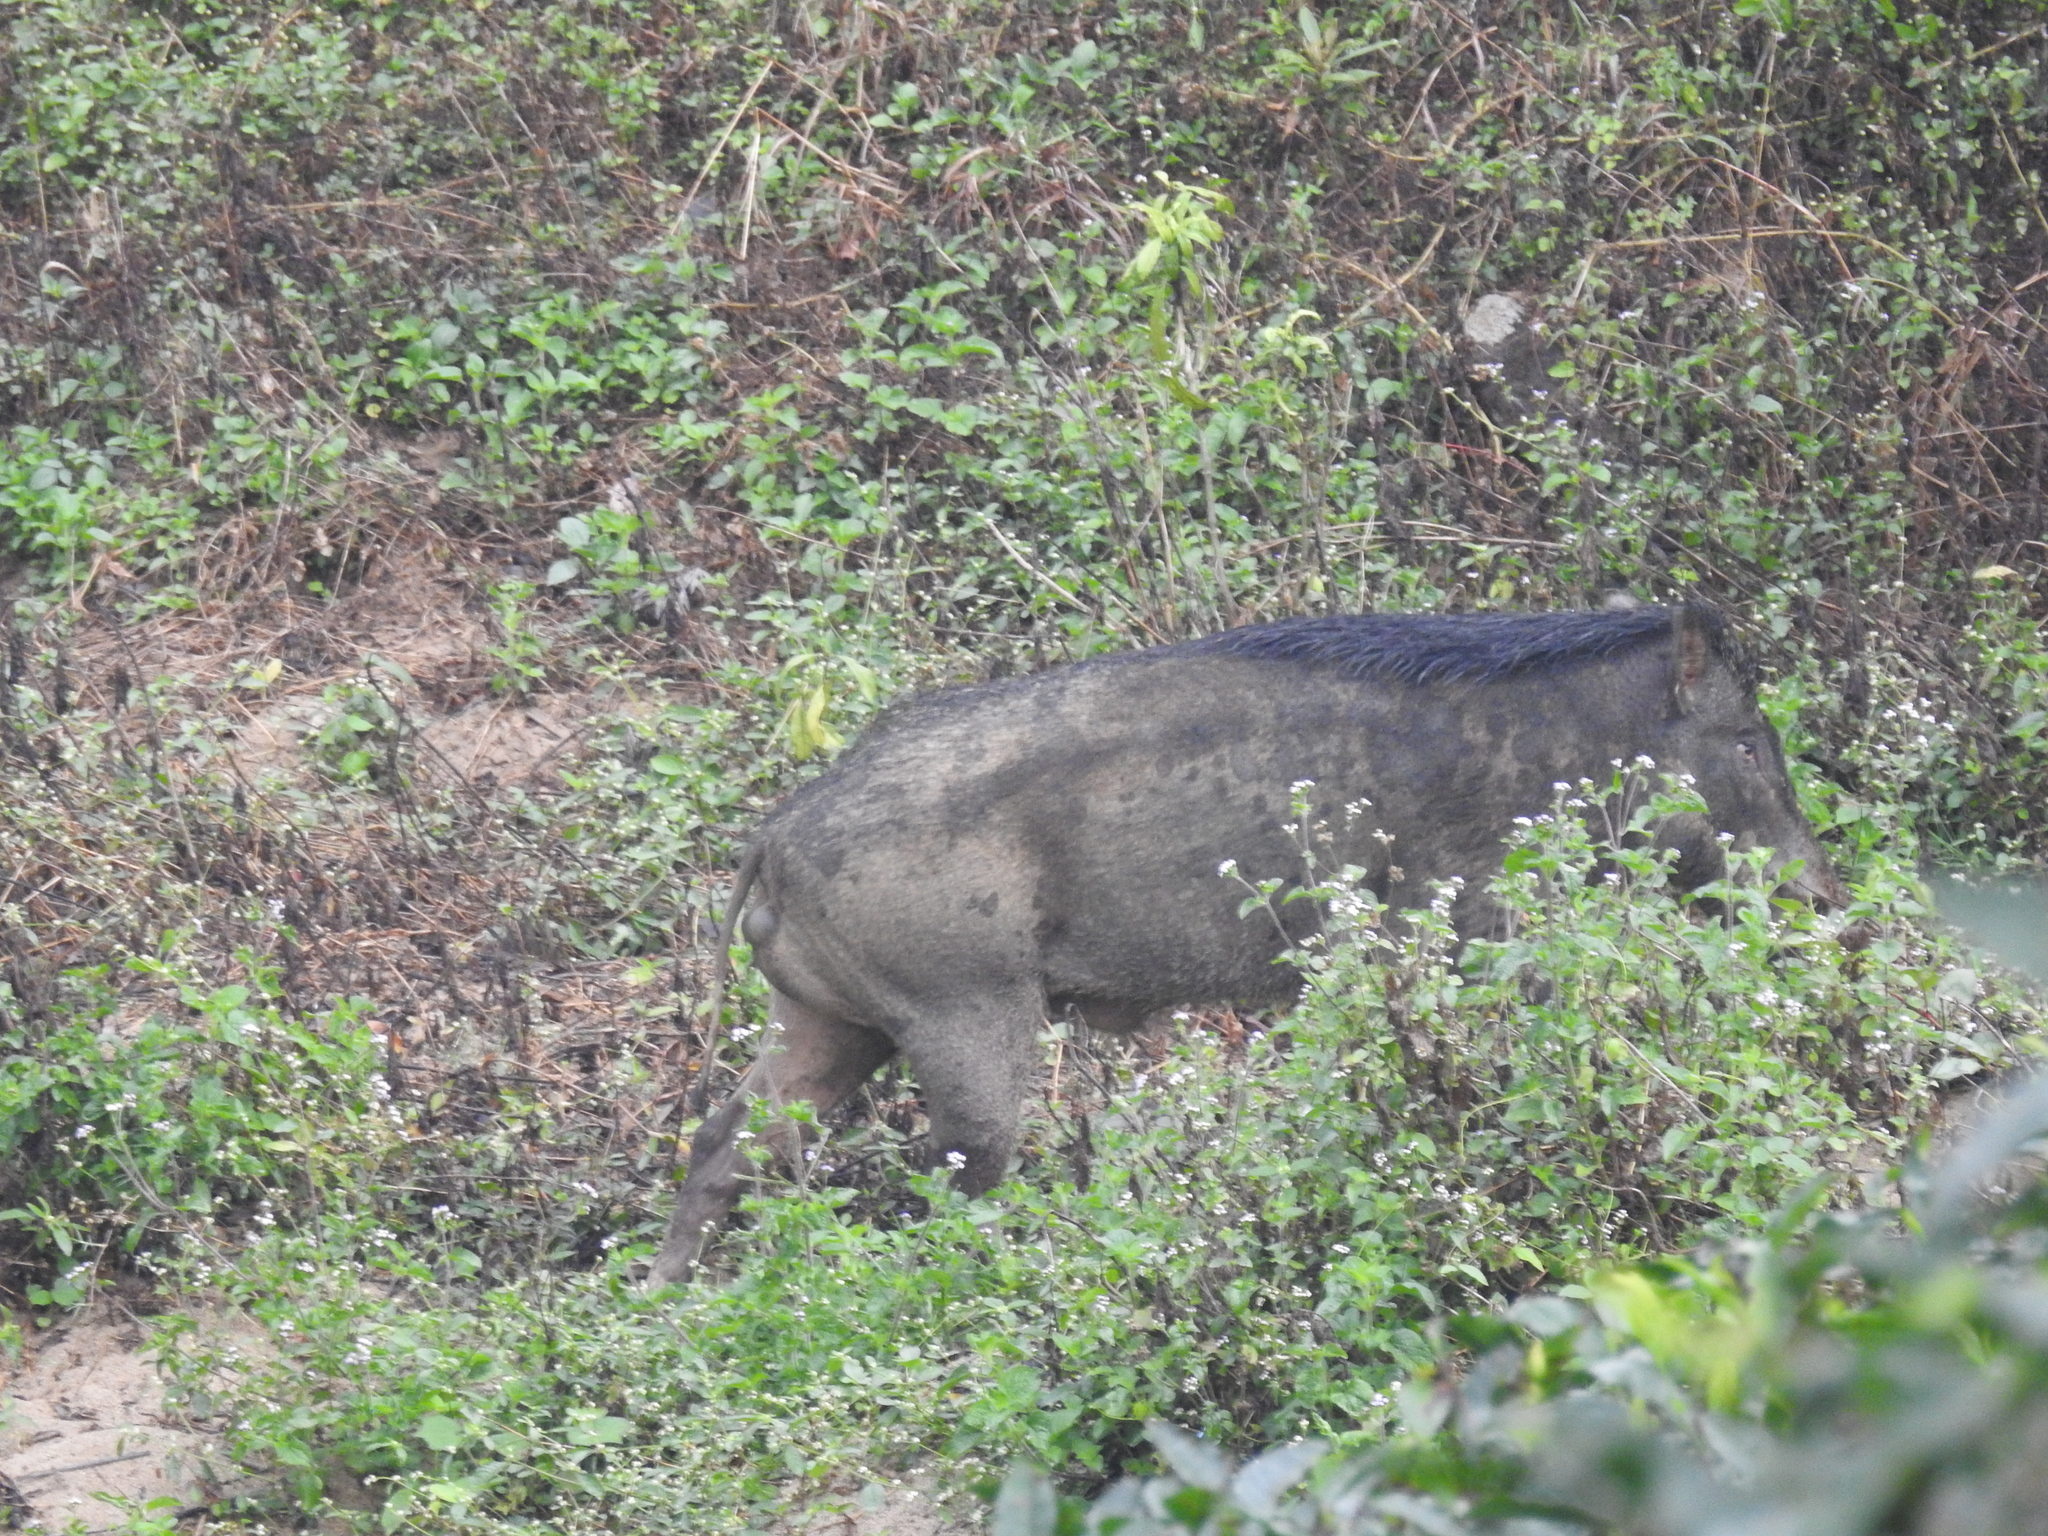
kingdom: Animalia
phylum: Chordata
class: Mammalia
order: Artiodactyla
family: Suidae
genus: Sus
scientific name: Sus scrofa
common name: Wild boar
